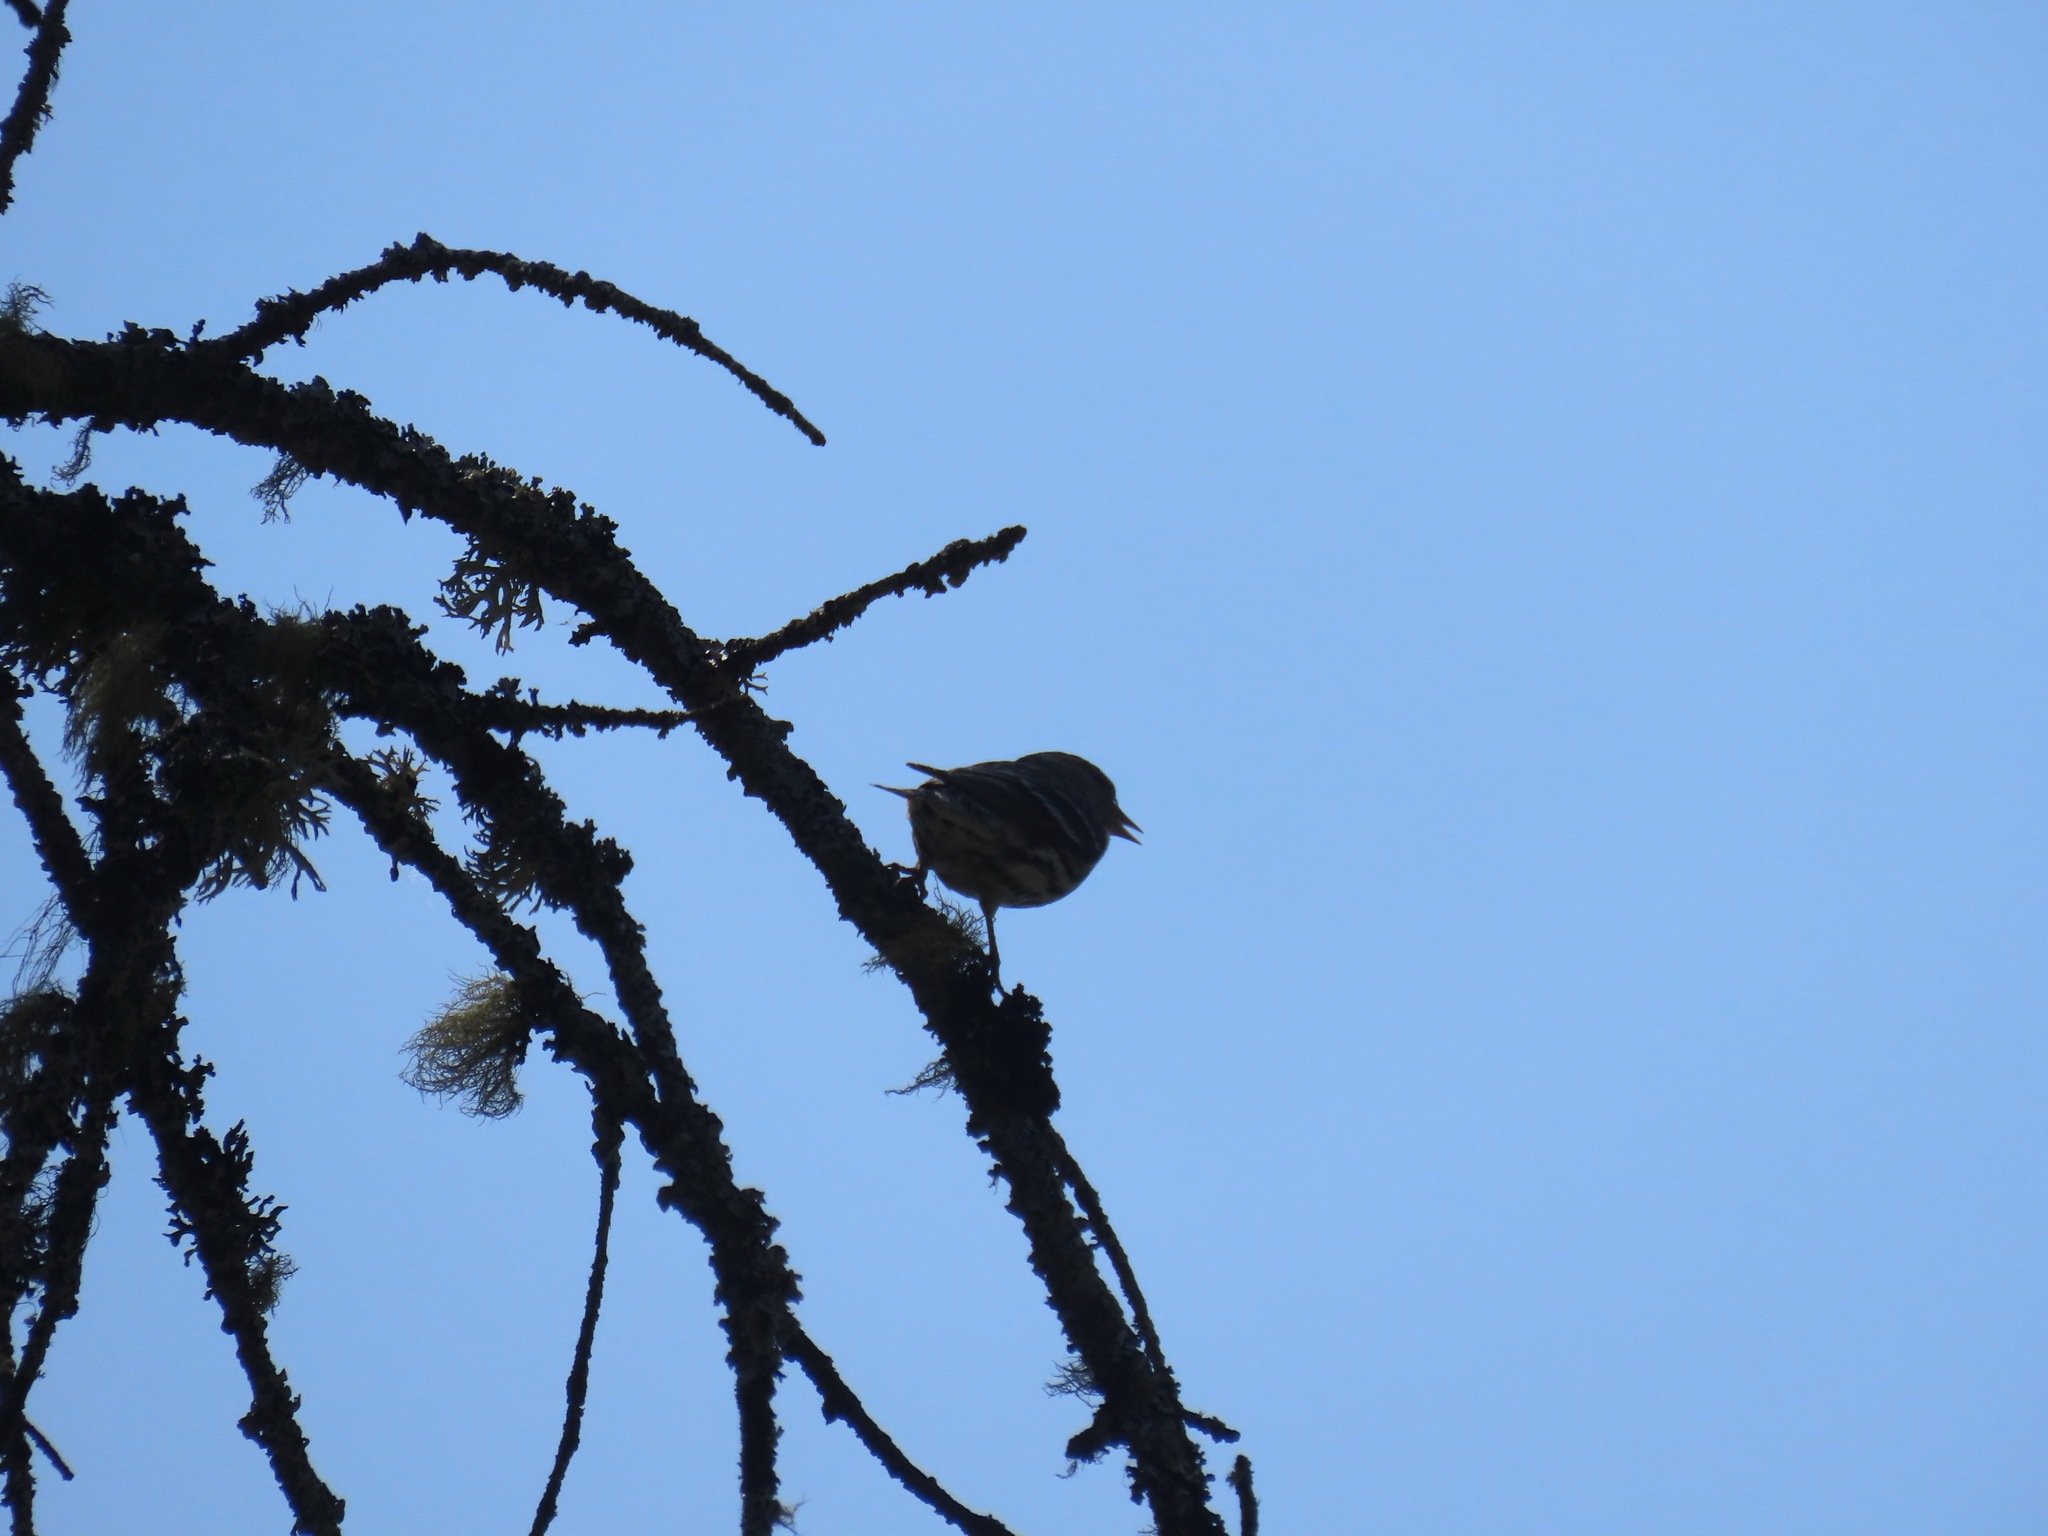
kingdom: Animalia
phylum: Chordata
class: Aves
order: Passeriformes
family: Fringillidae
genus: Spinus
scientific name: Spinus pinus
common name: Pine siskin
